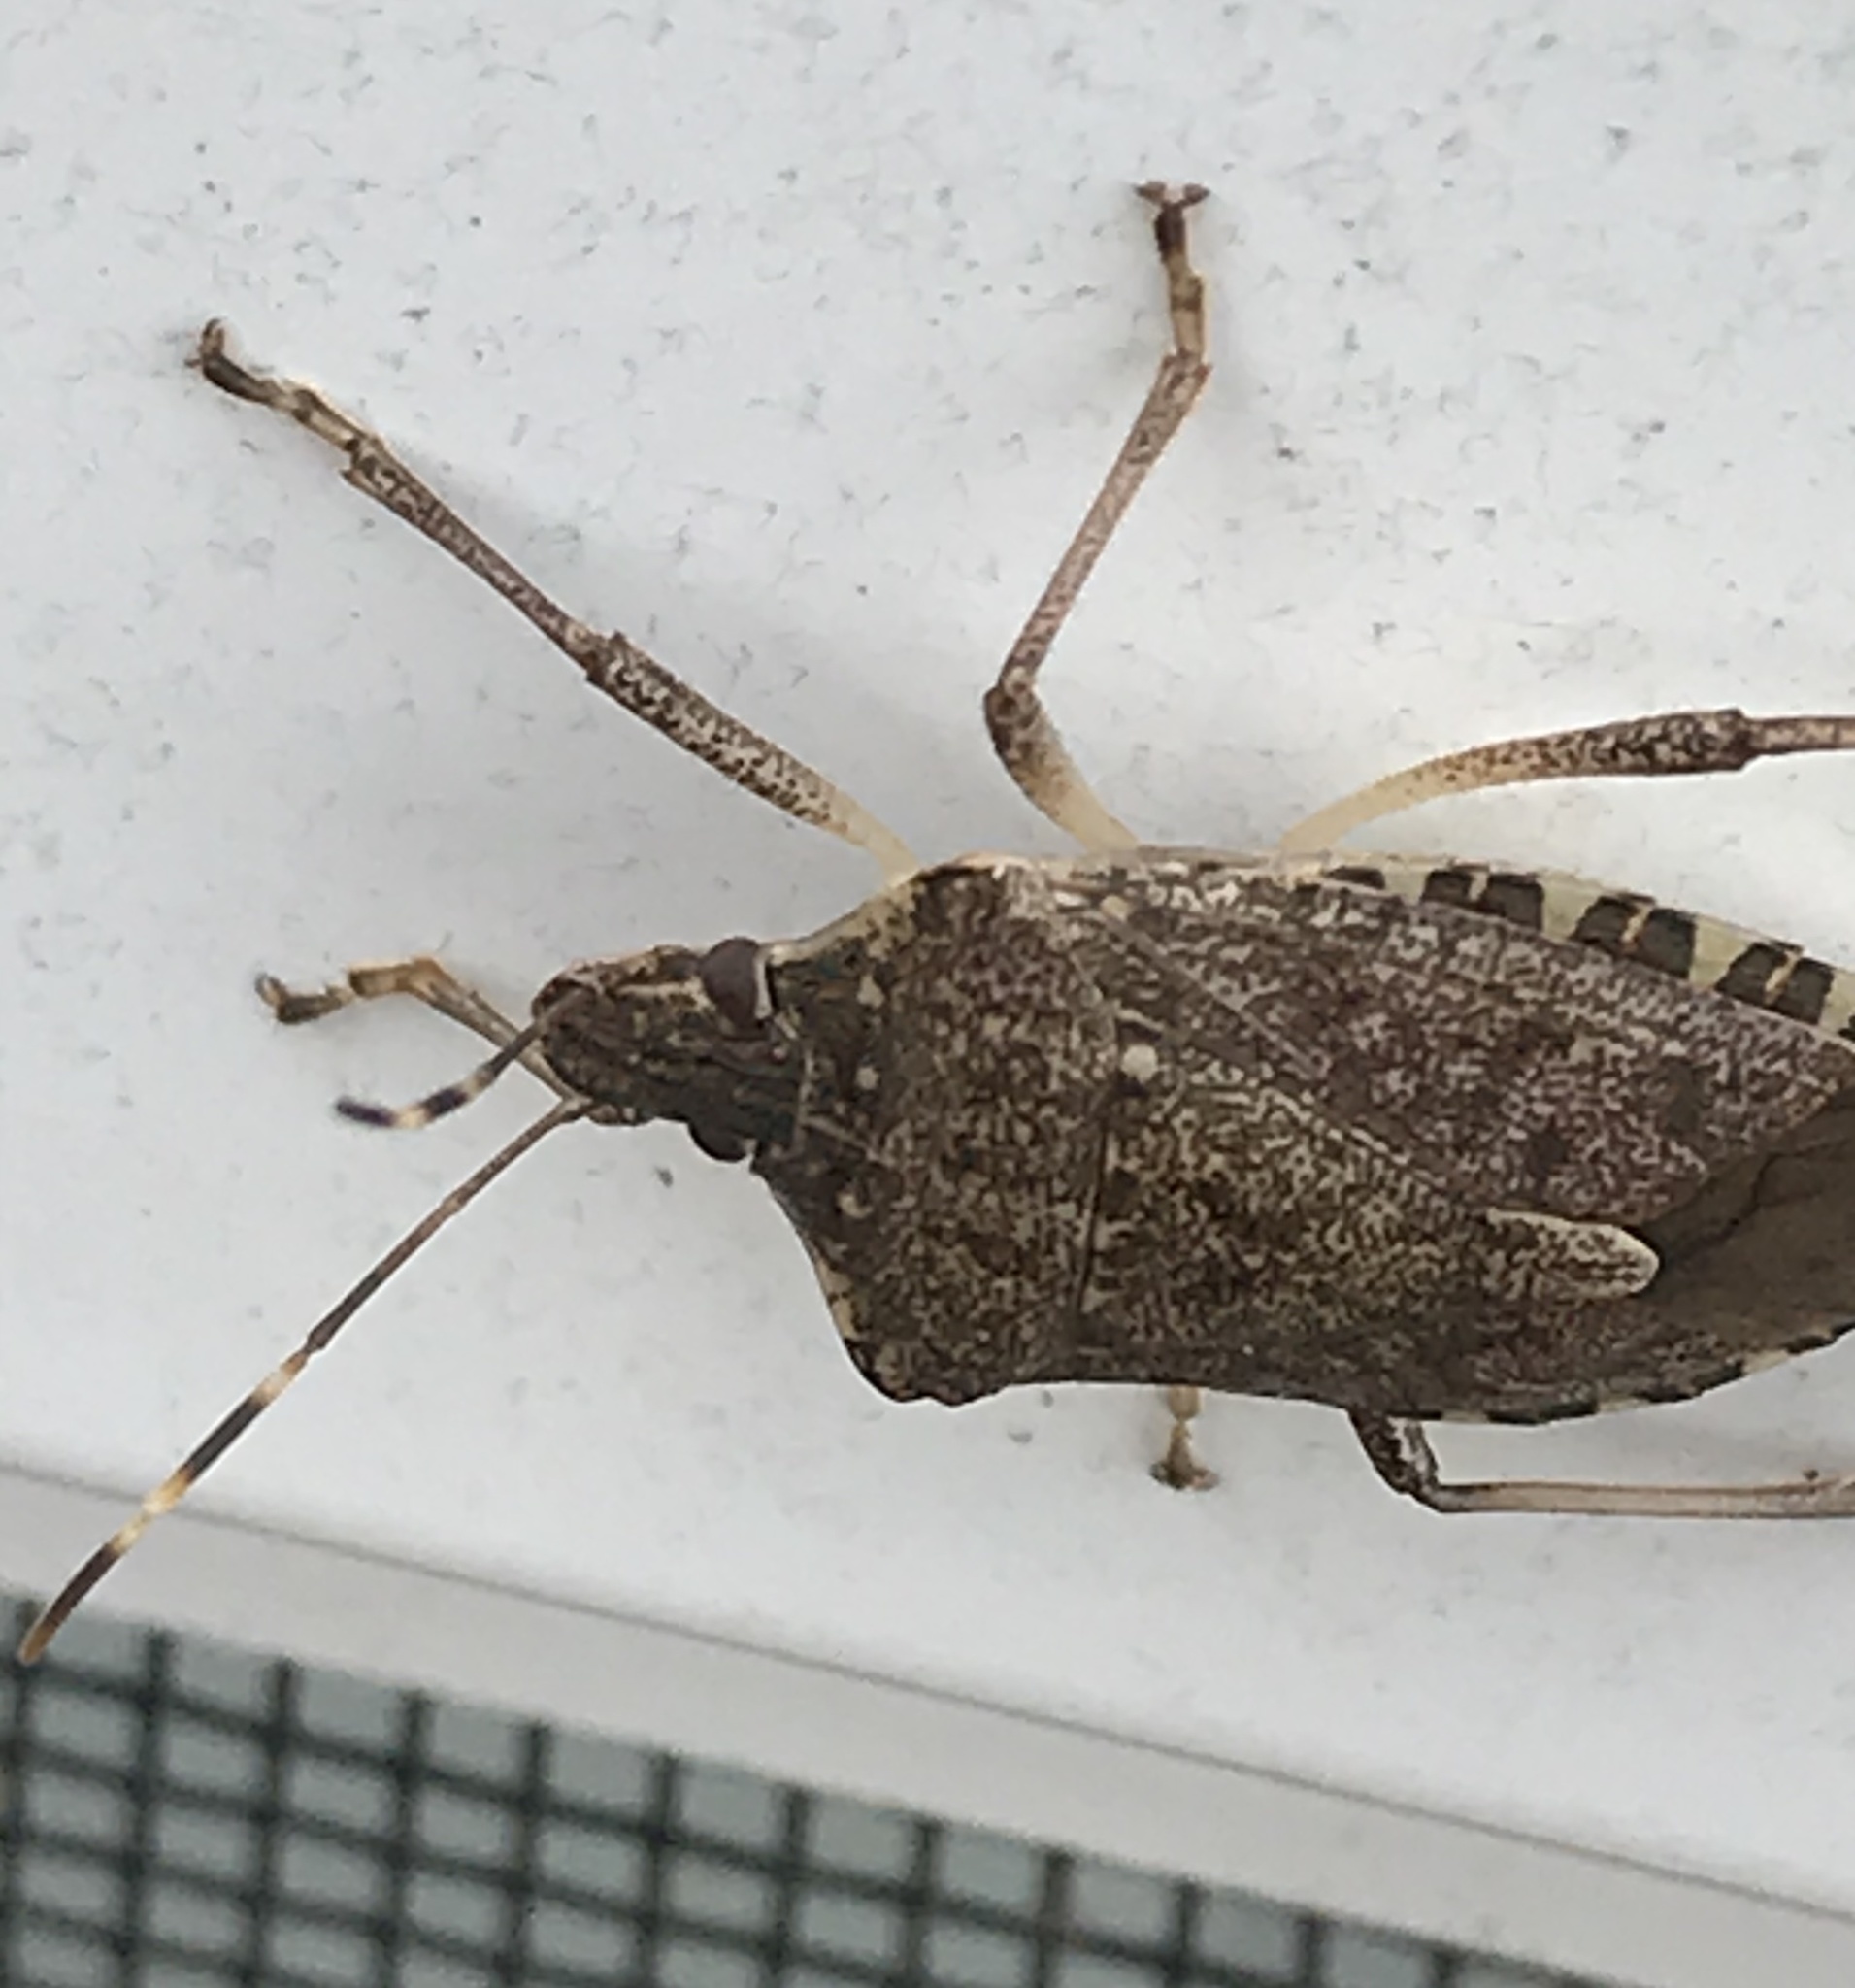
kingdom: Animalia
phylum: Arthropoda
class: Insecta
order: Hemiptera
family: Pentatomidae
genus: Halyomorpha
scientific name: Halyomorpha halys
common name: Brown marmorated stink bug
